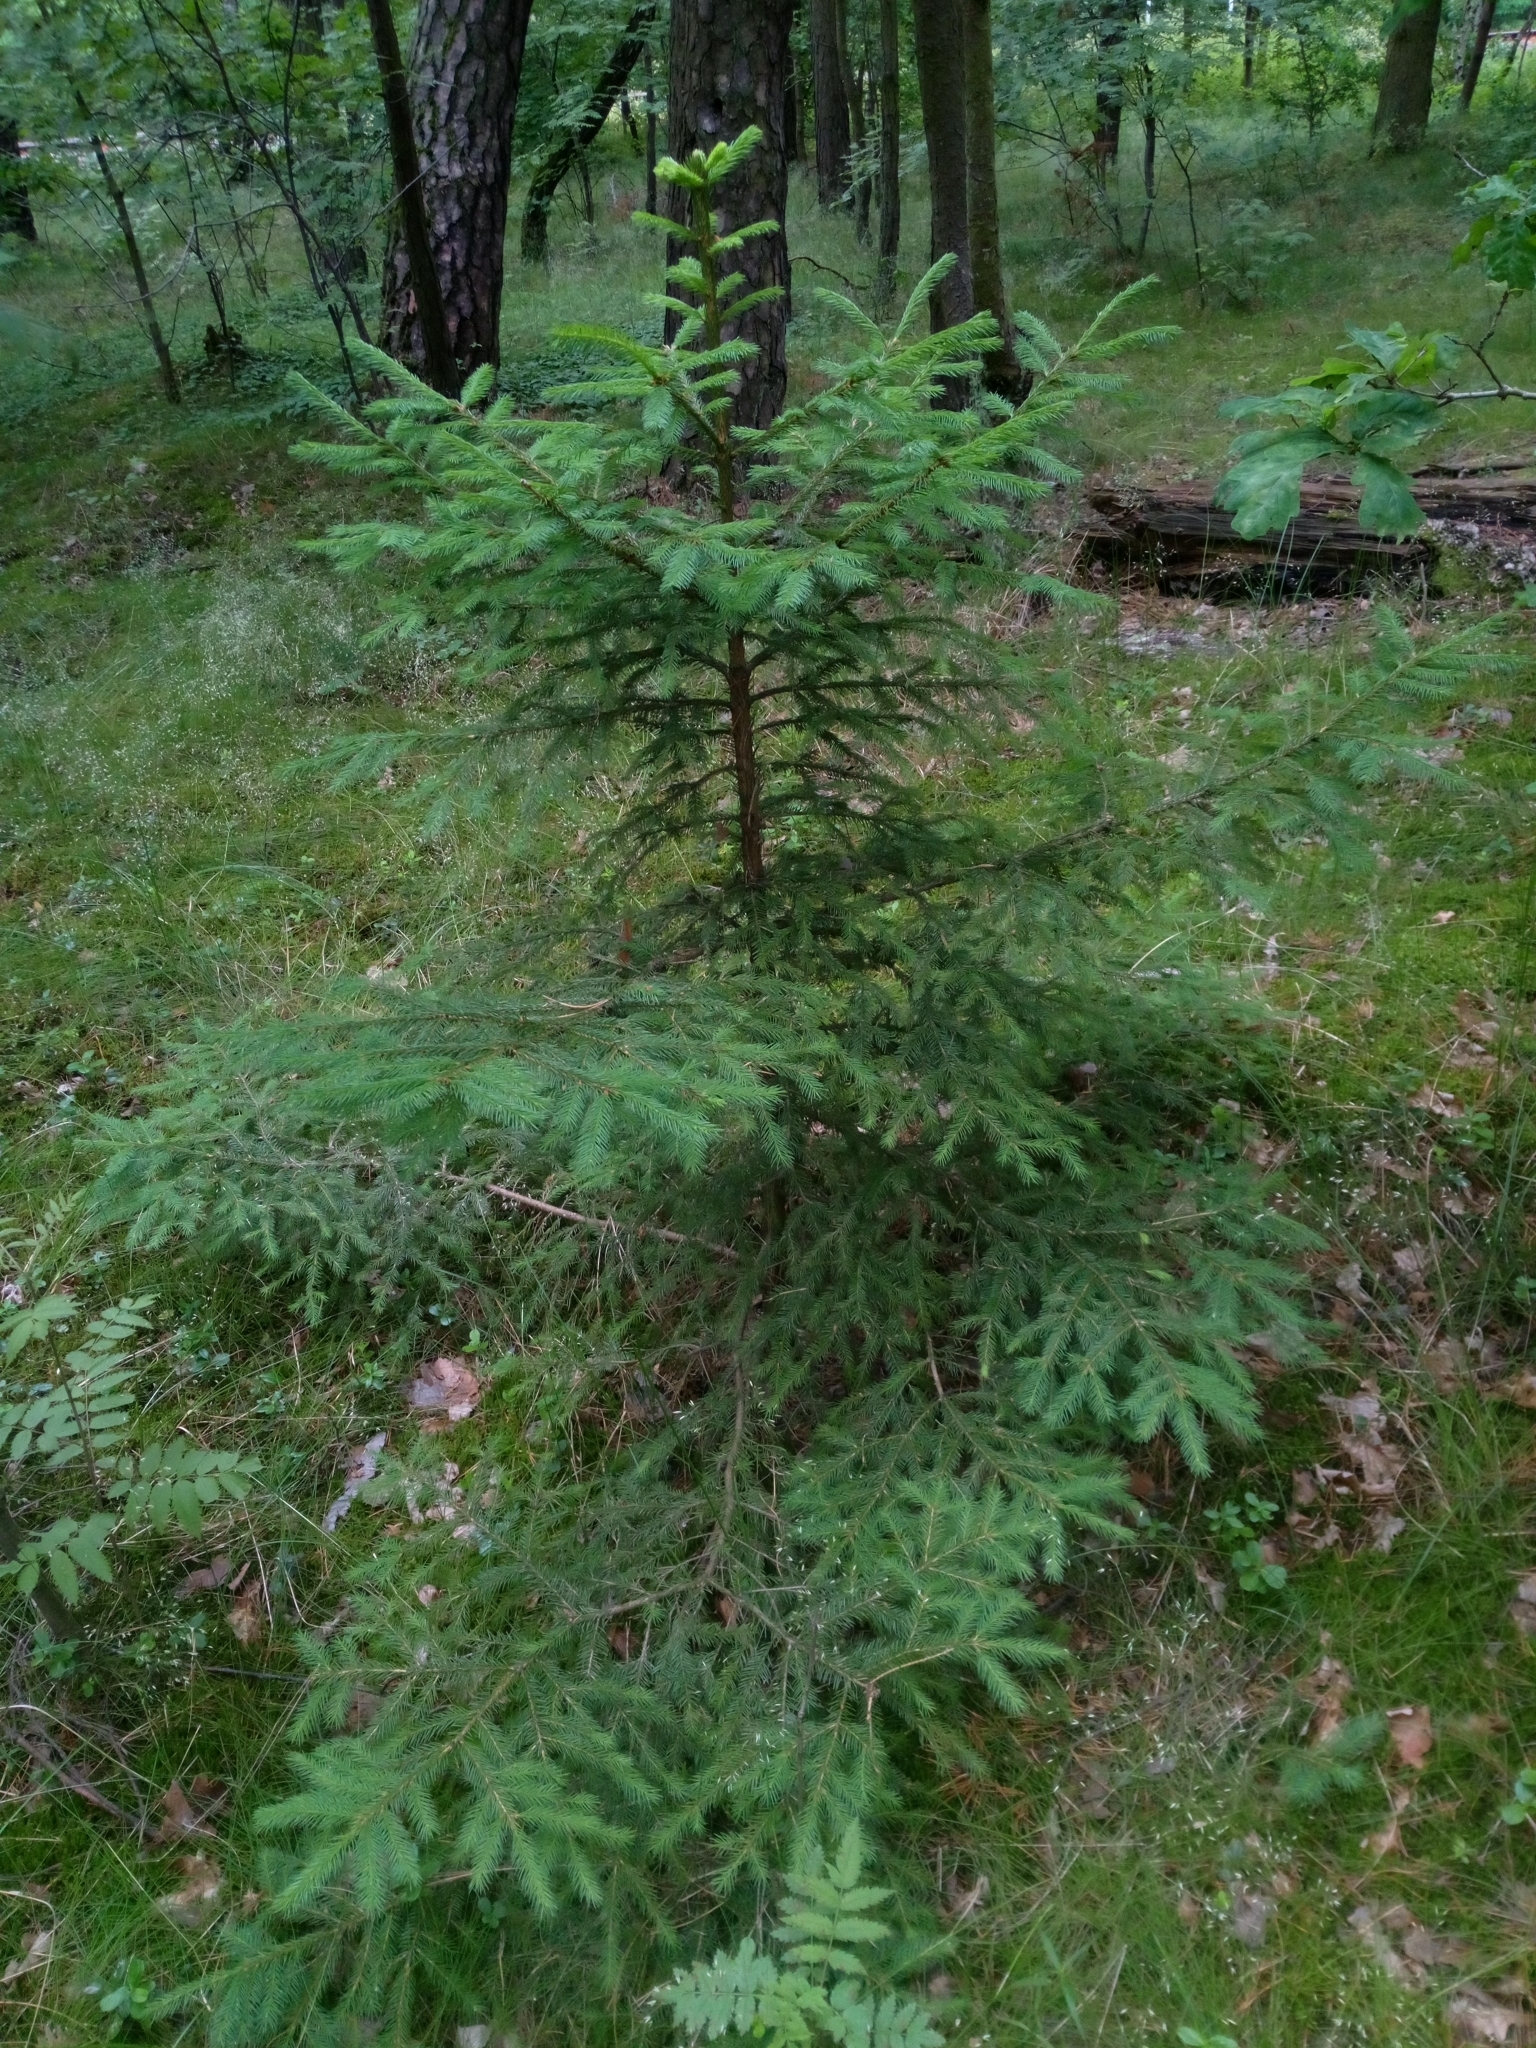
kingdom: Plantae
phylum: Tracheophyta
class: Pinopsida
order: Pinales
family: Pinaceae
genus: Picea
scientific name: Picea abies
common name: Norway spruce
